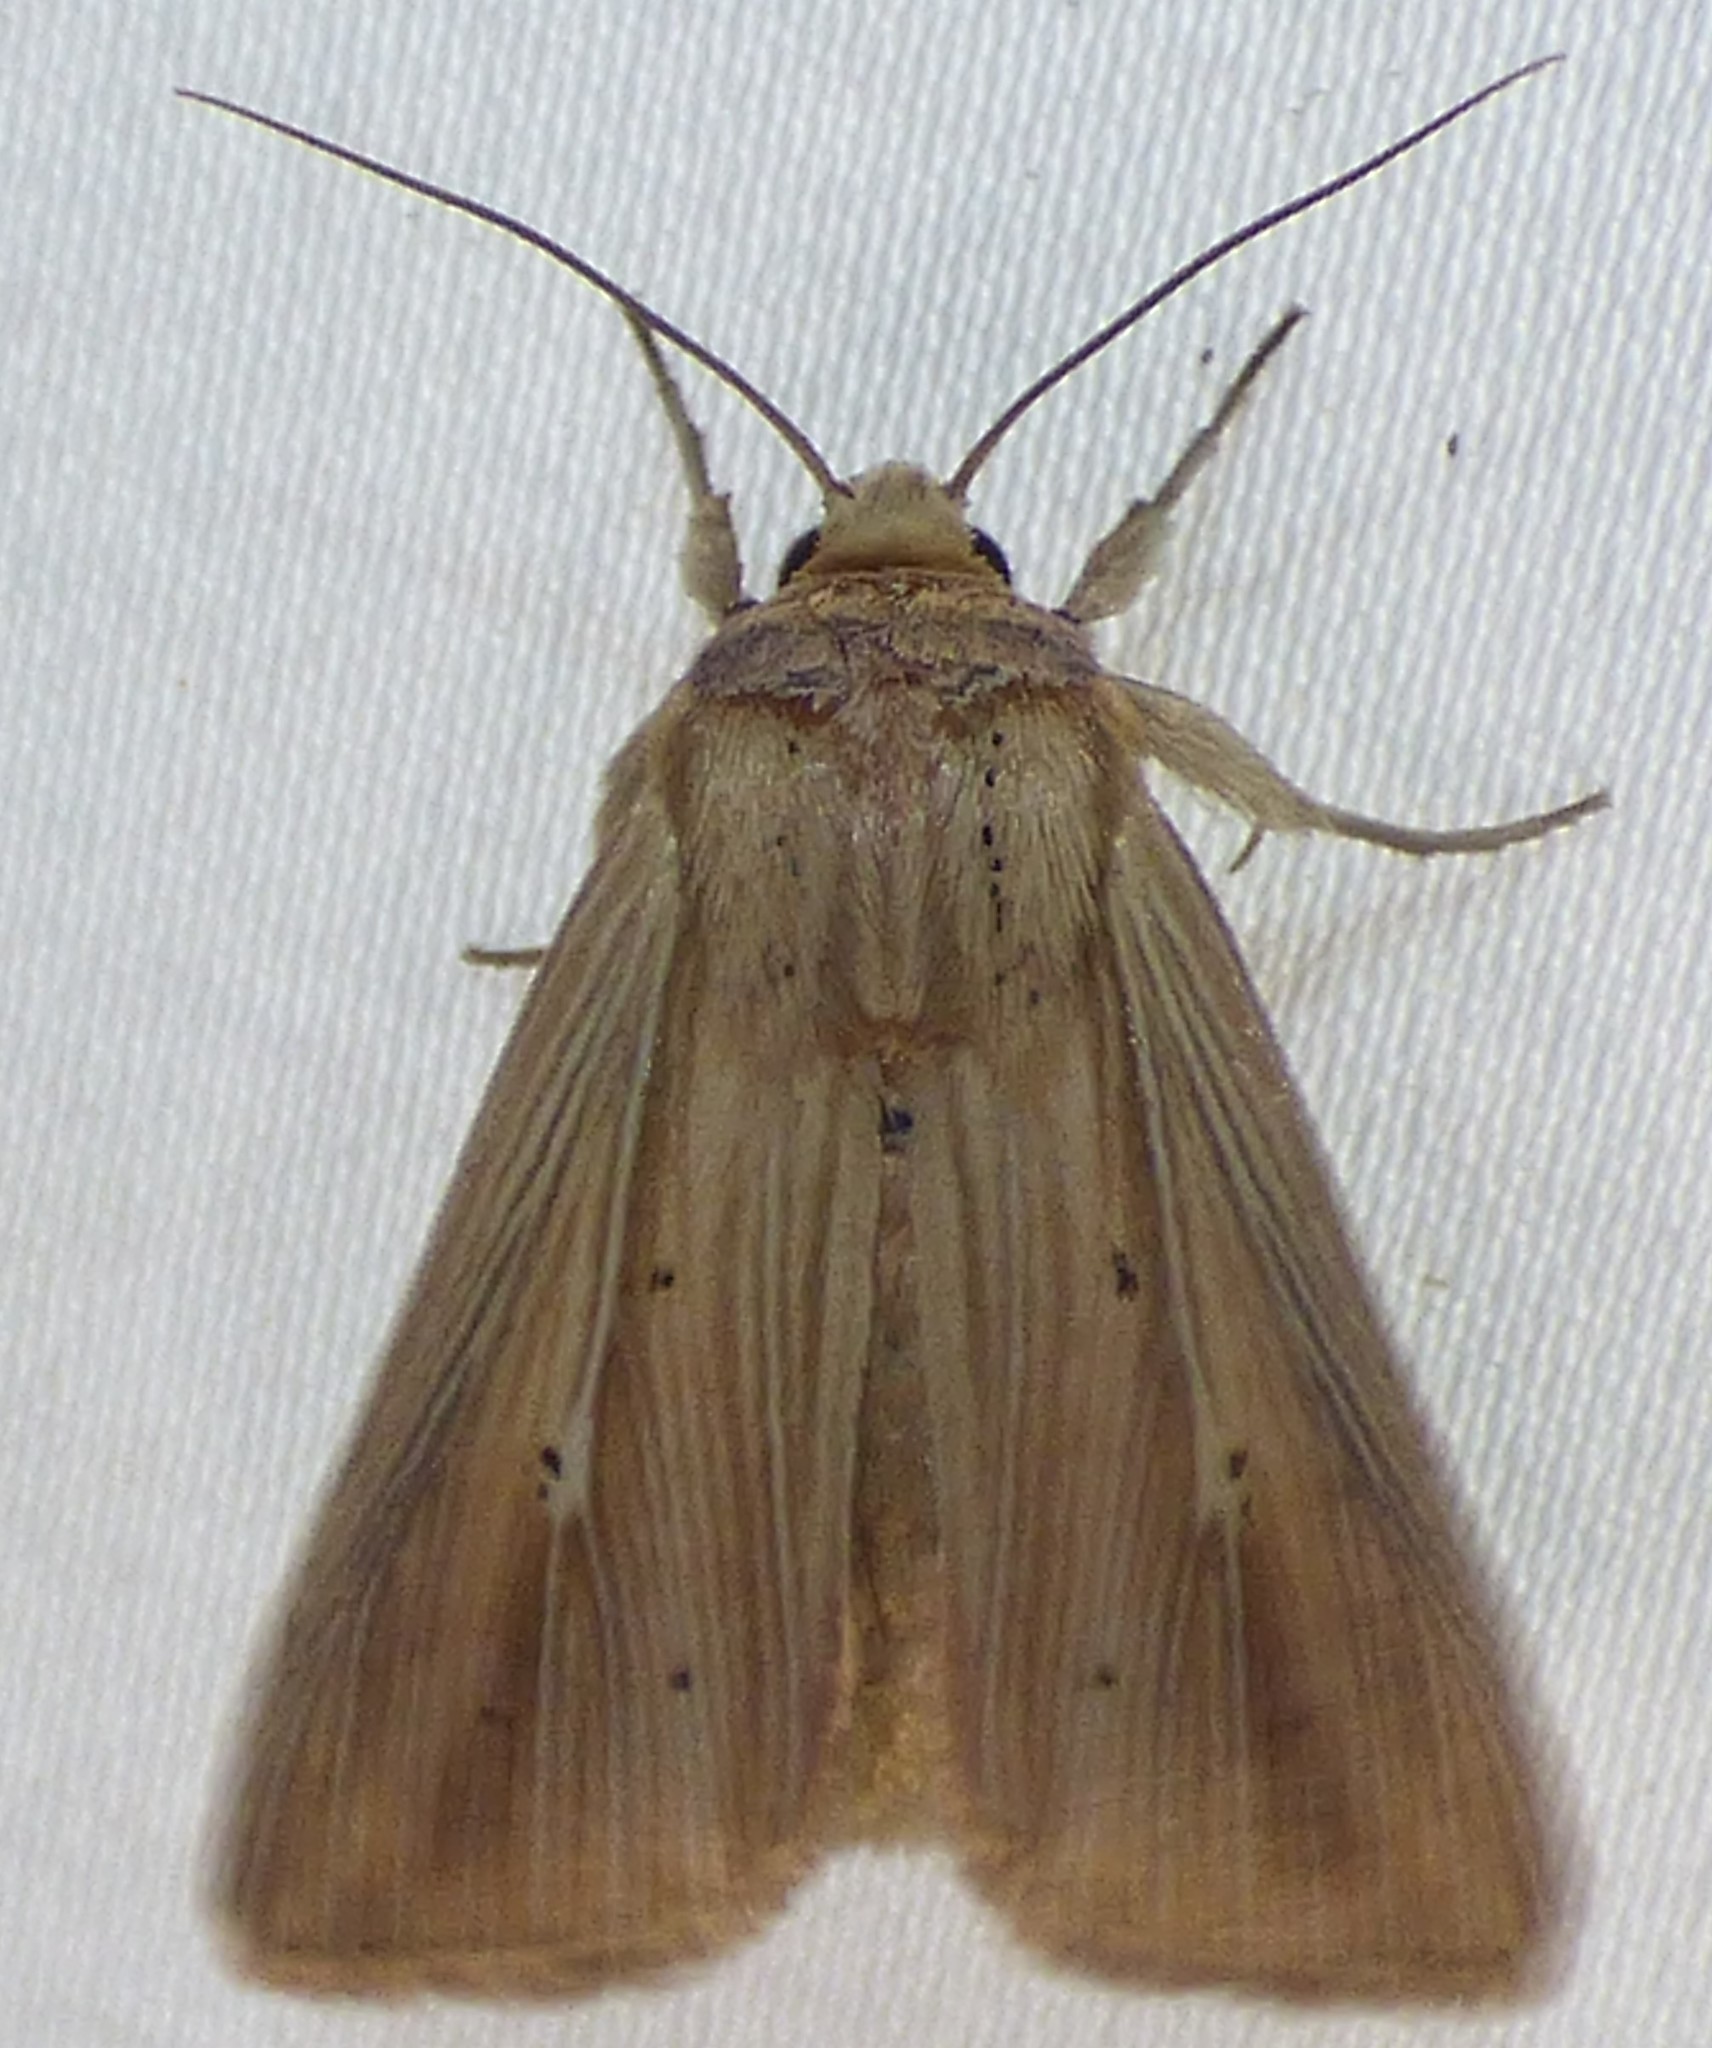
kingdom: Animalia
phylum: Arthropoda
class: Insecta
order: Lepidoptera
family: Noctuidae
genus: Leucania
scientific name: Leucania adjuta
